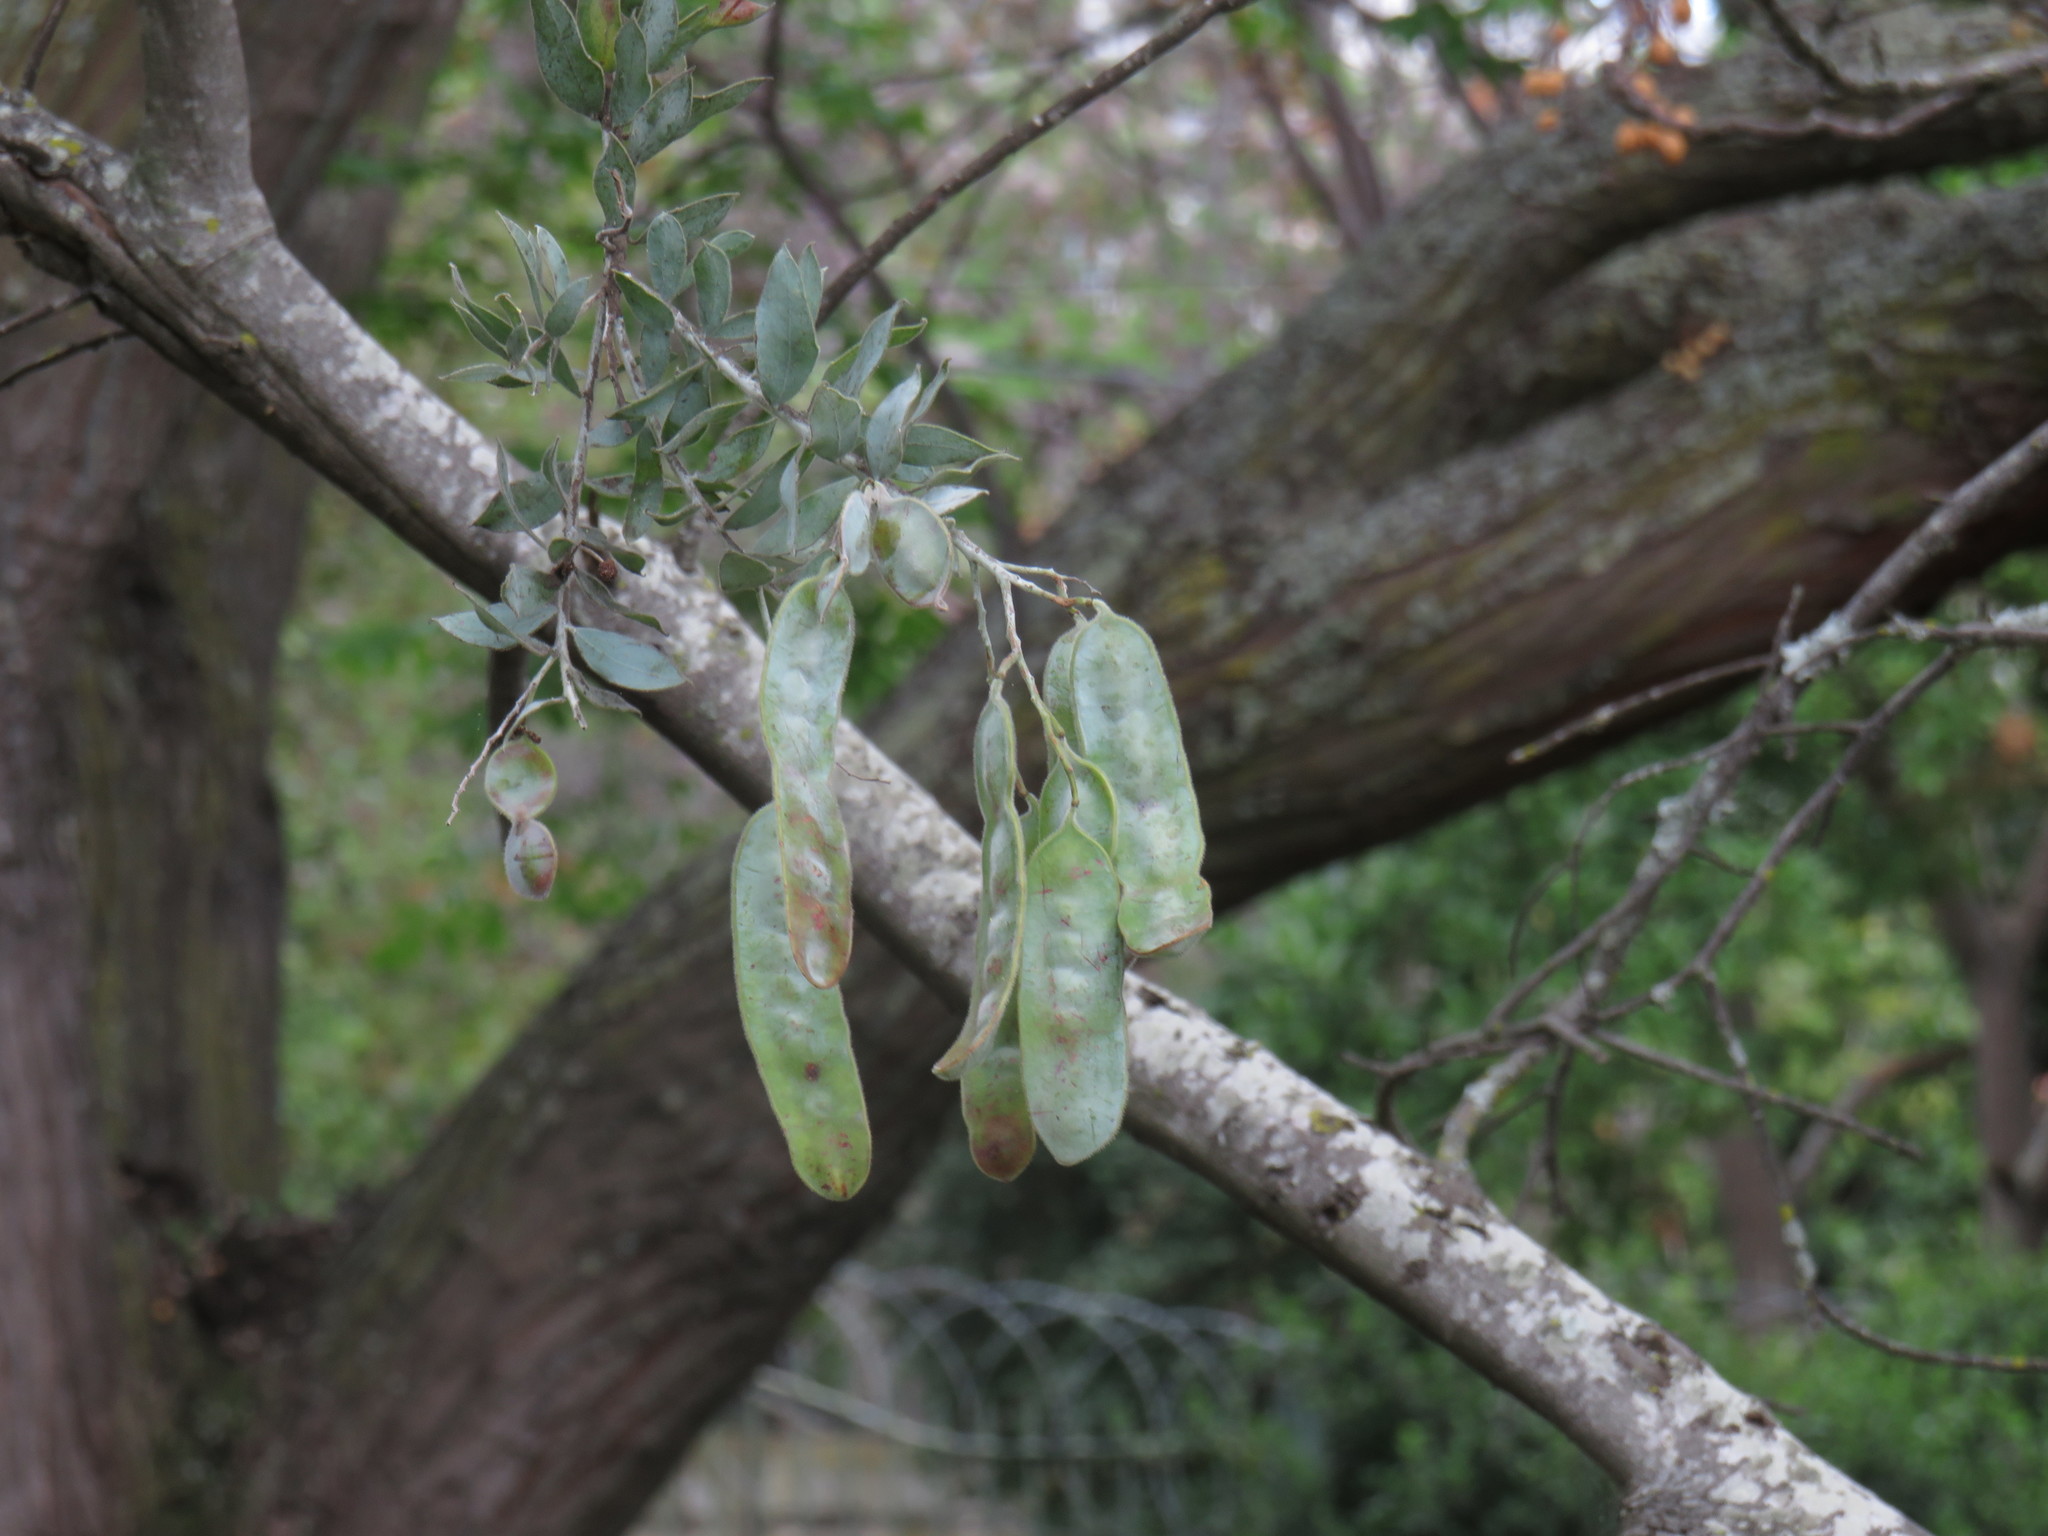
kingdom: Plantae
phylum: Tracheophyta
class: Magnoliopsida
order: Fabales
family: Fabaceae
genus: Acacia
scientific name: Acacia podalyriifolia
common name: Pearl wattle
